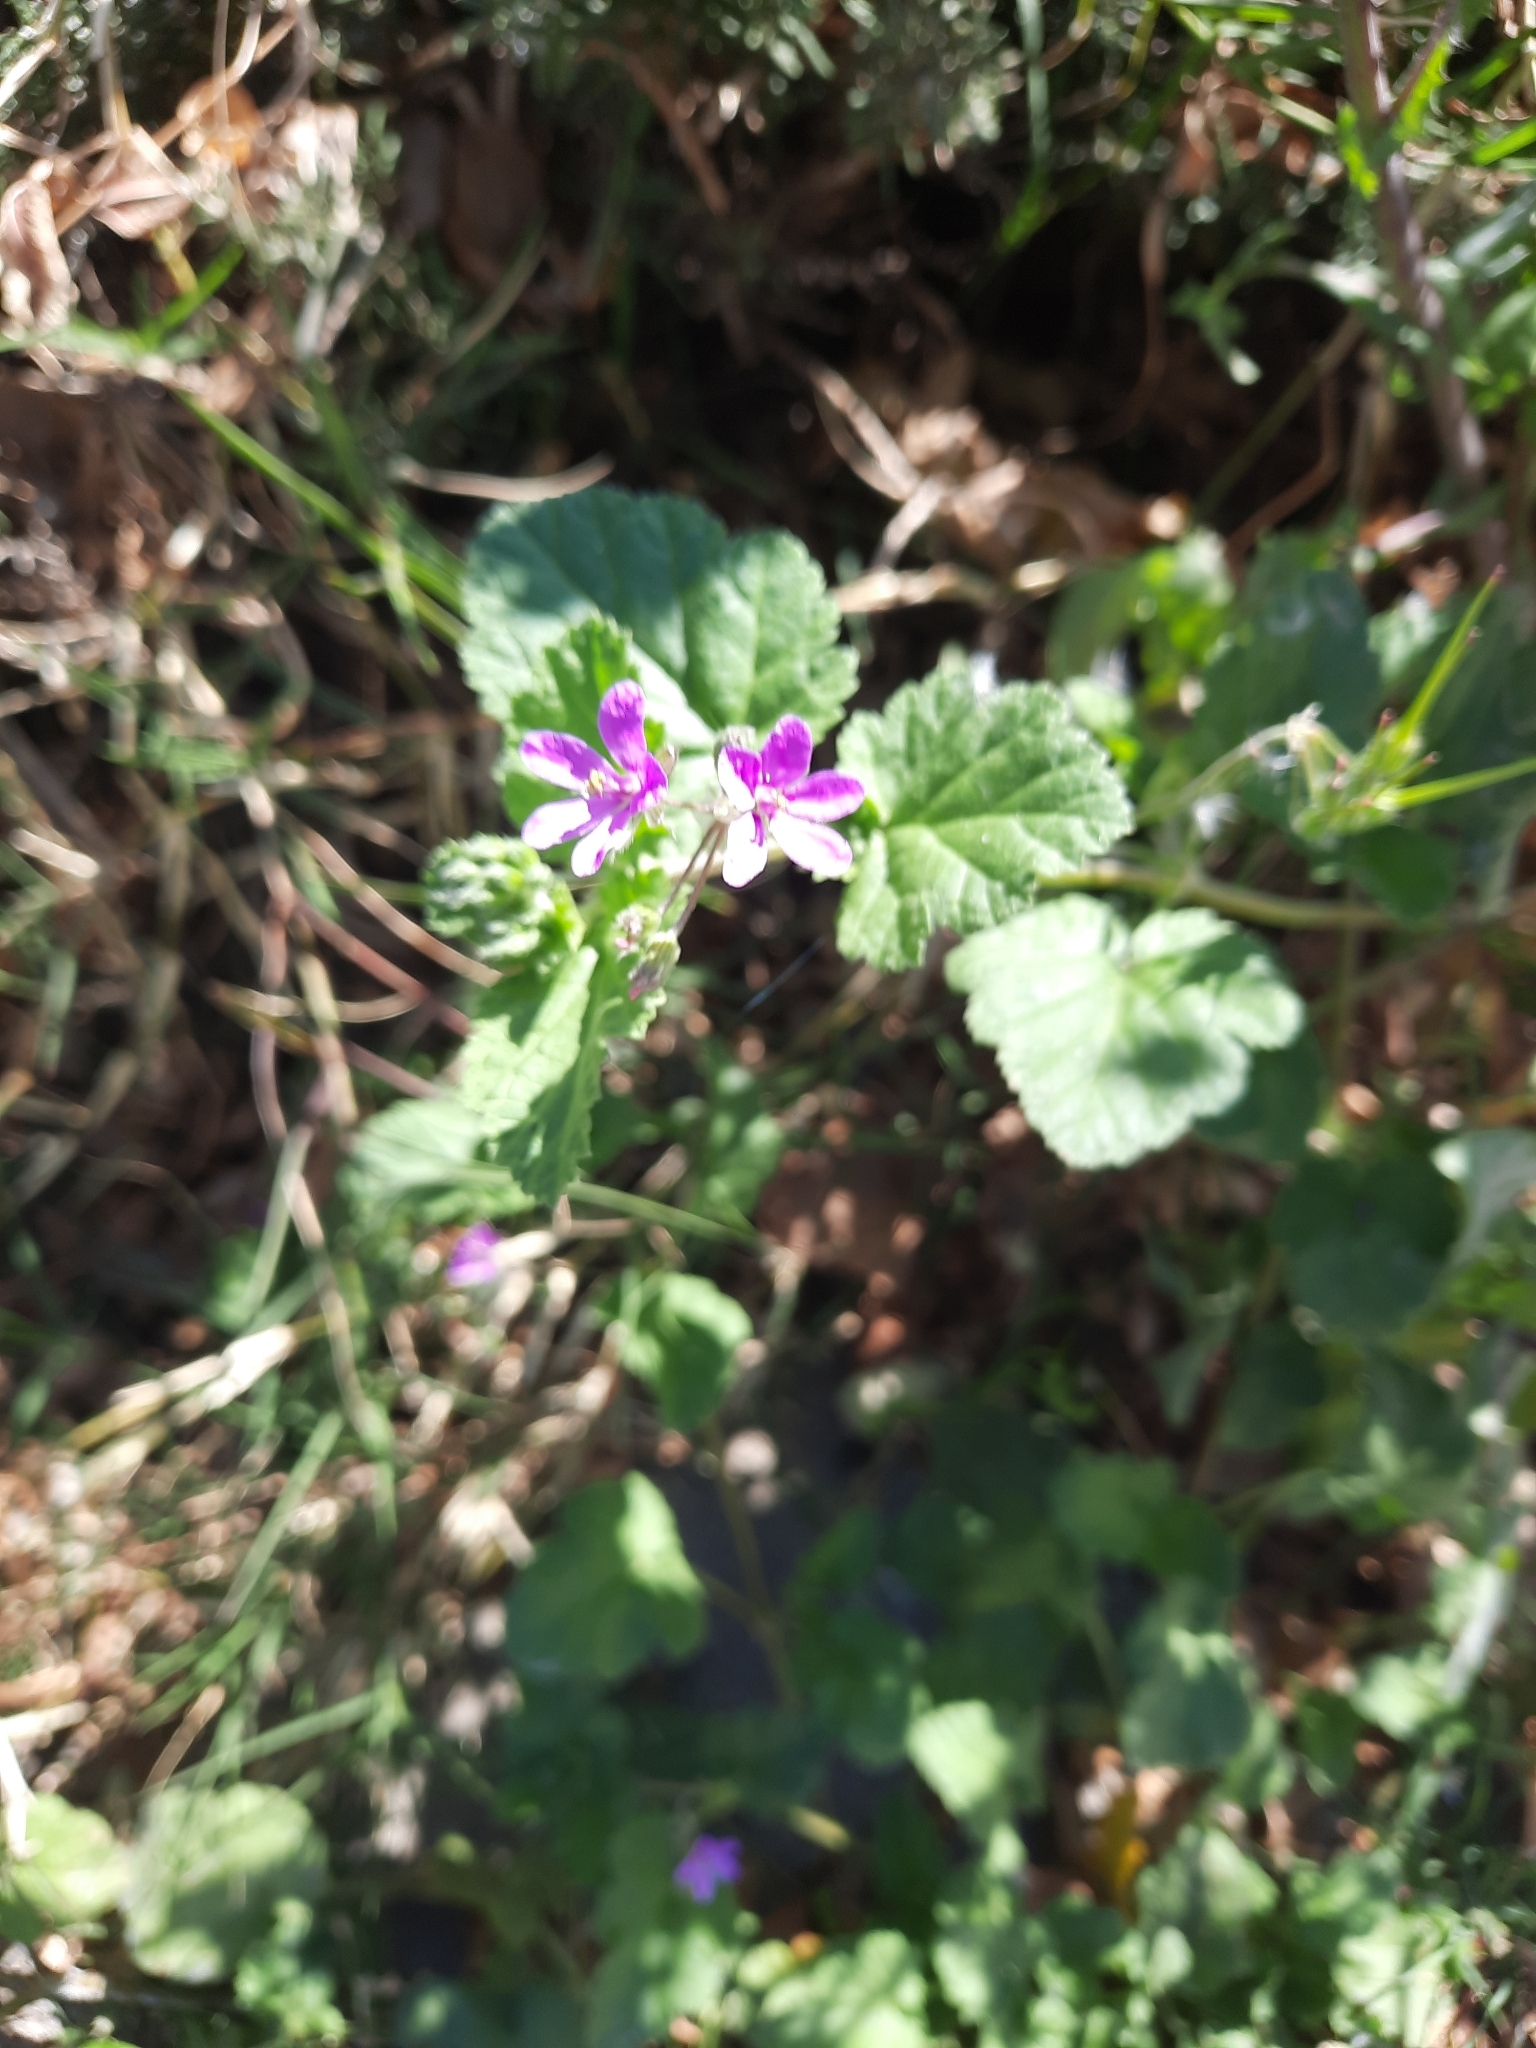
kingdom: Plantae
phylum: Tracheophyta
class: Magnoliopsida
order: Geraniales
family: Geraniaceae
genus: Erodium
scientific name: Erodium malacoides
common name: Soft stork's-bill
